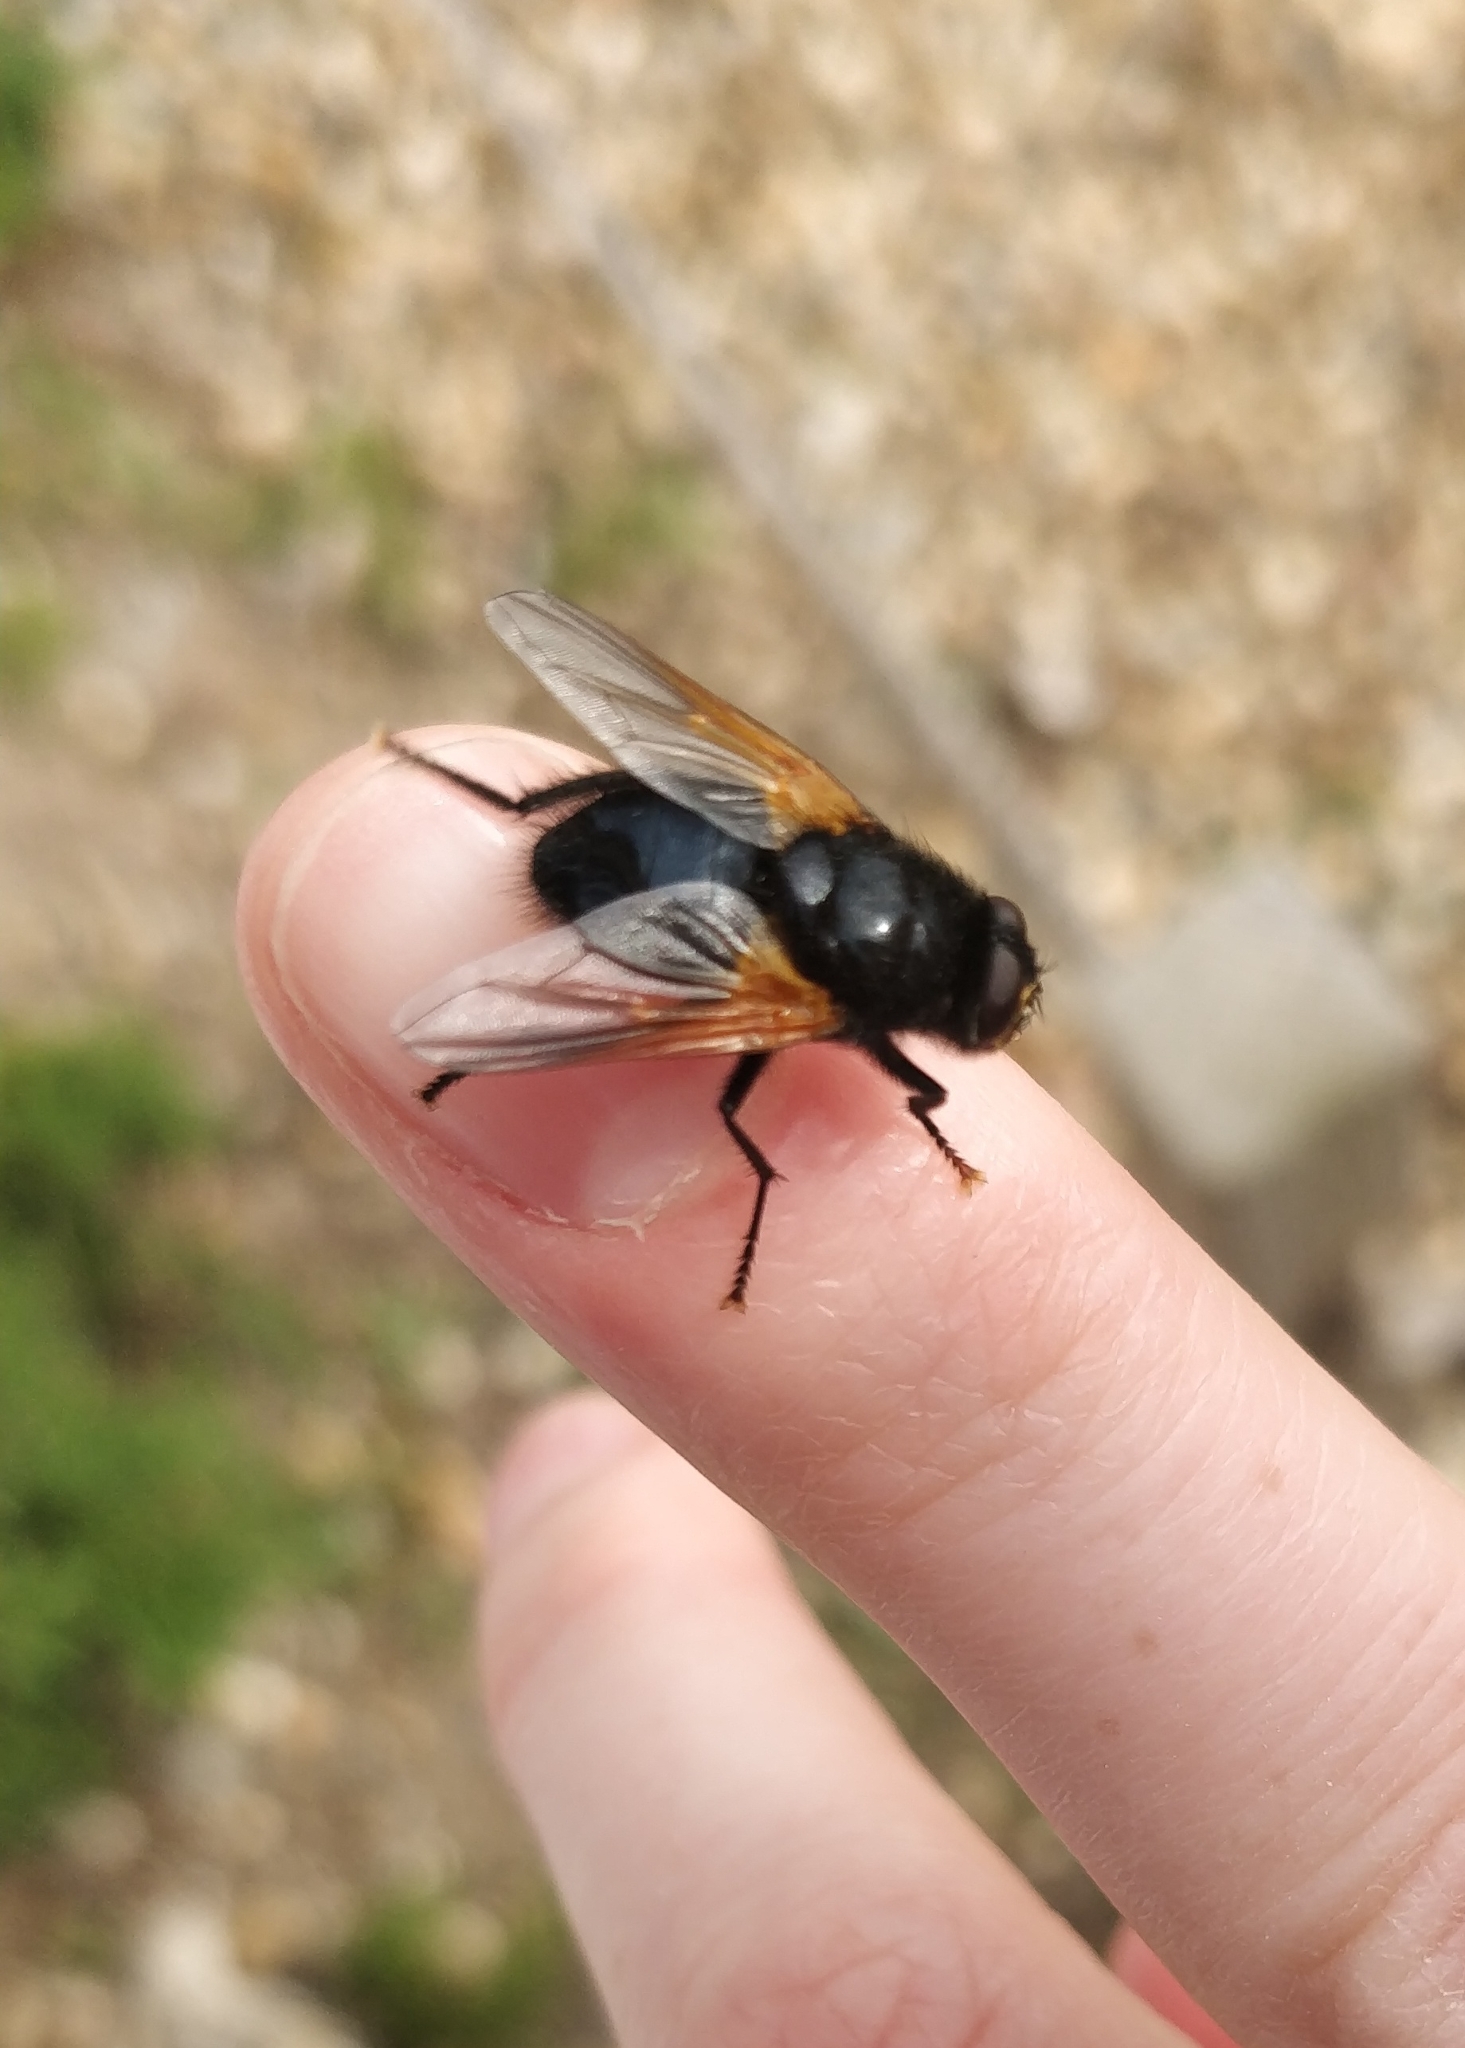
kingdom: Animalia
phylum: Arthropoda
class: Insecta
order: Diptera
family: Muscidae
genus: Mesembrina
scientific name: Mesembrina meridiana
